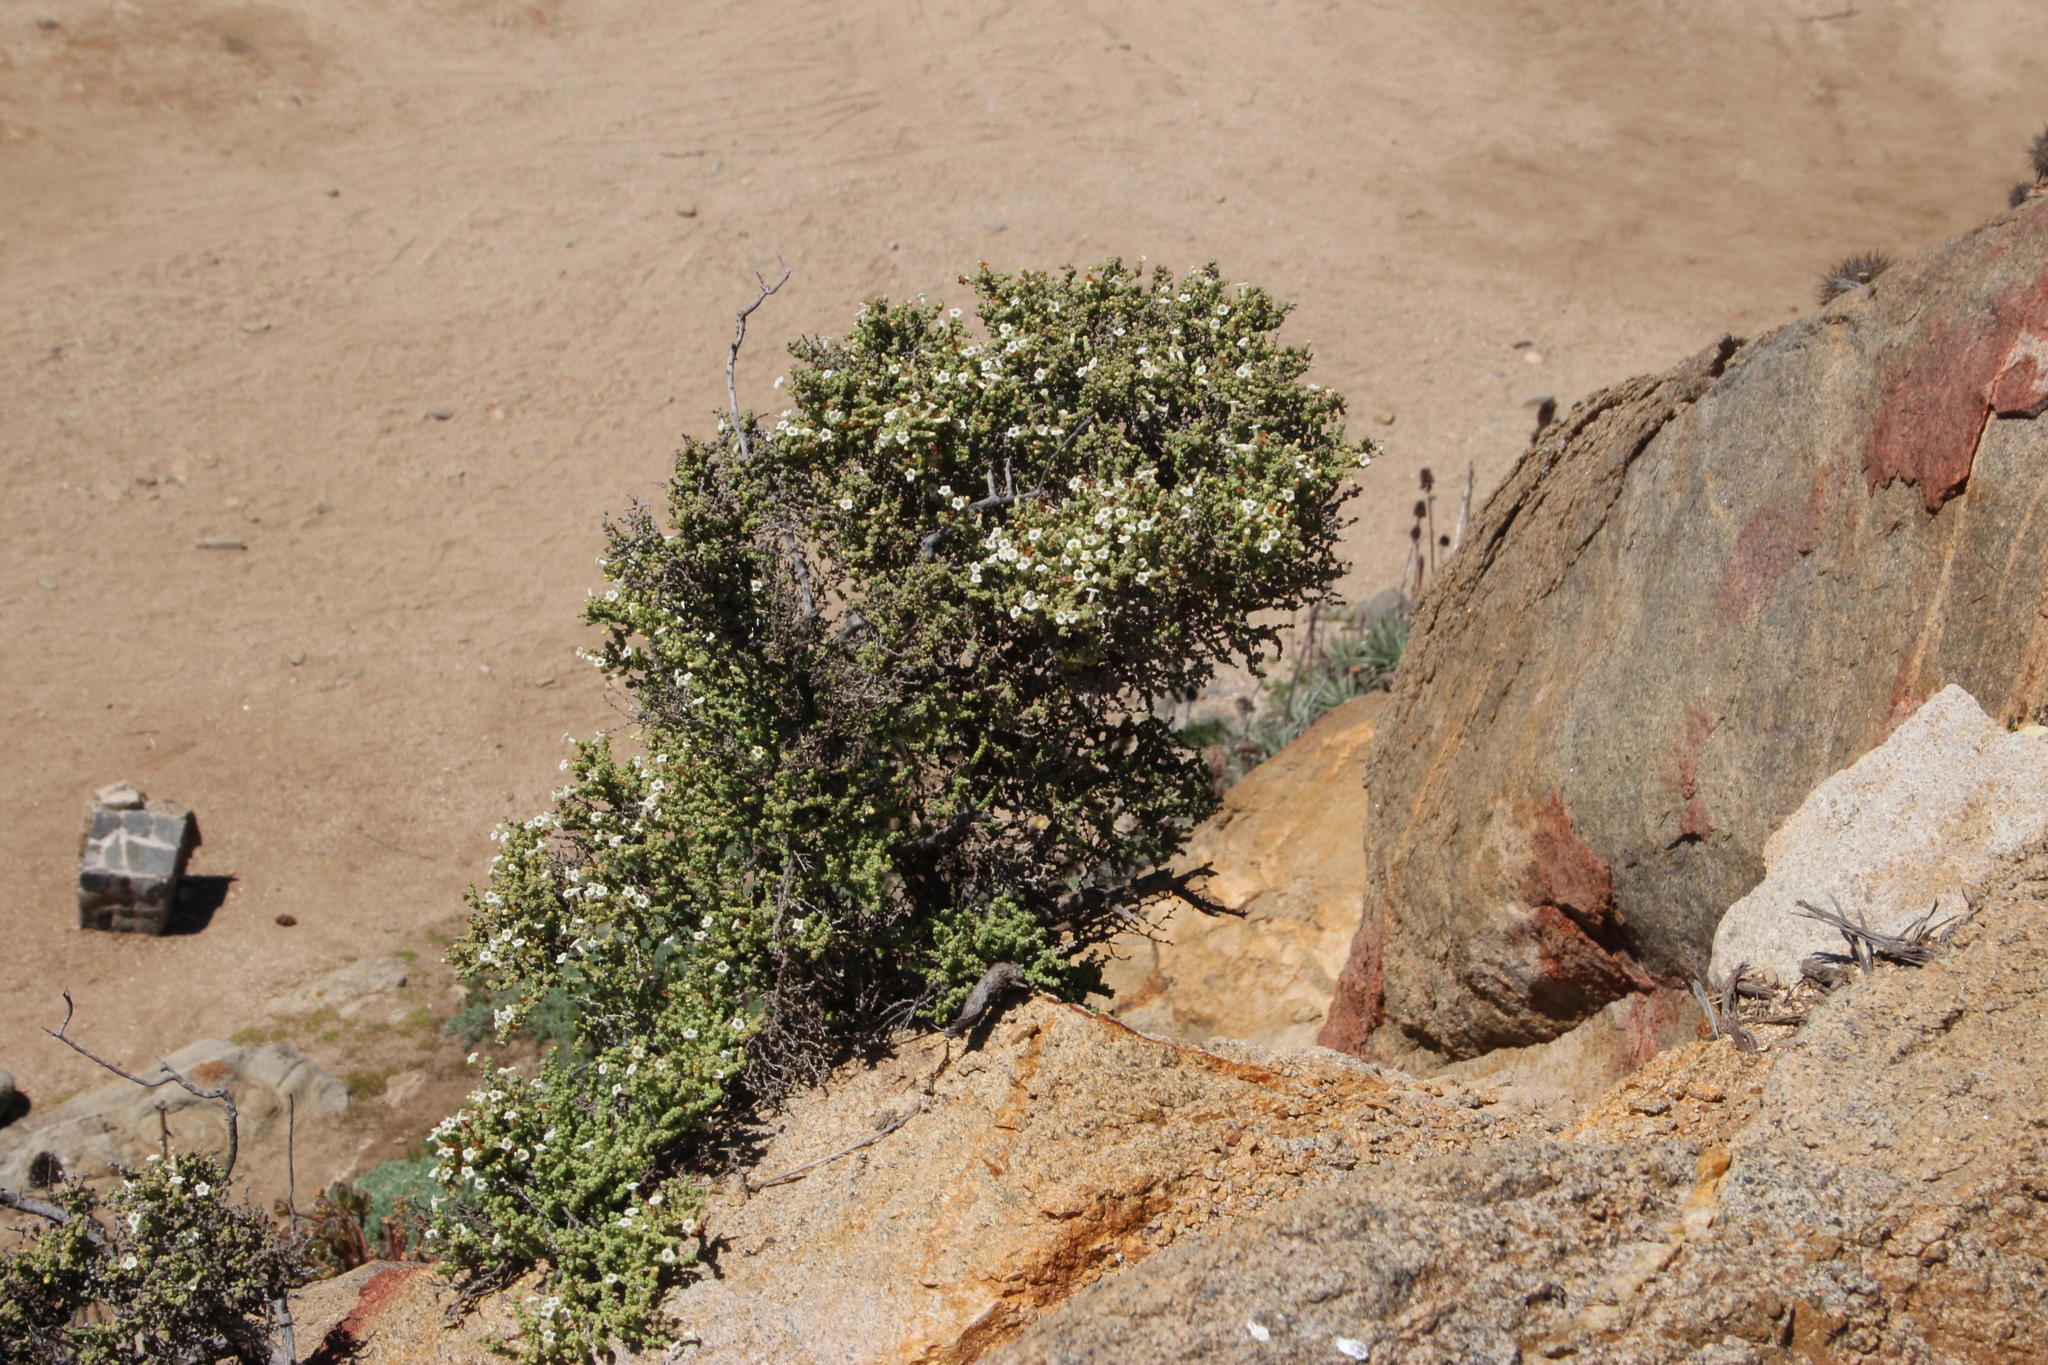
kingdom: Plantae
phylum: Tracheophyta
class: Magnoliopsida
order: Solanales
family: Solanaceae
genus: Nolana
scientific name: Nolana sedifolia
